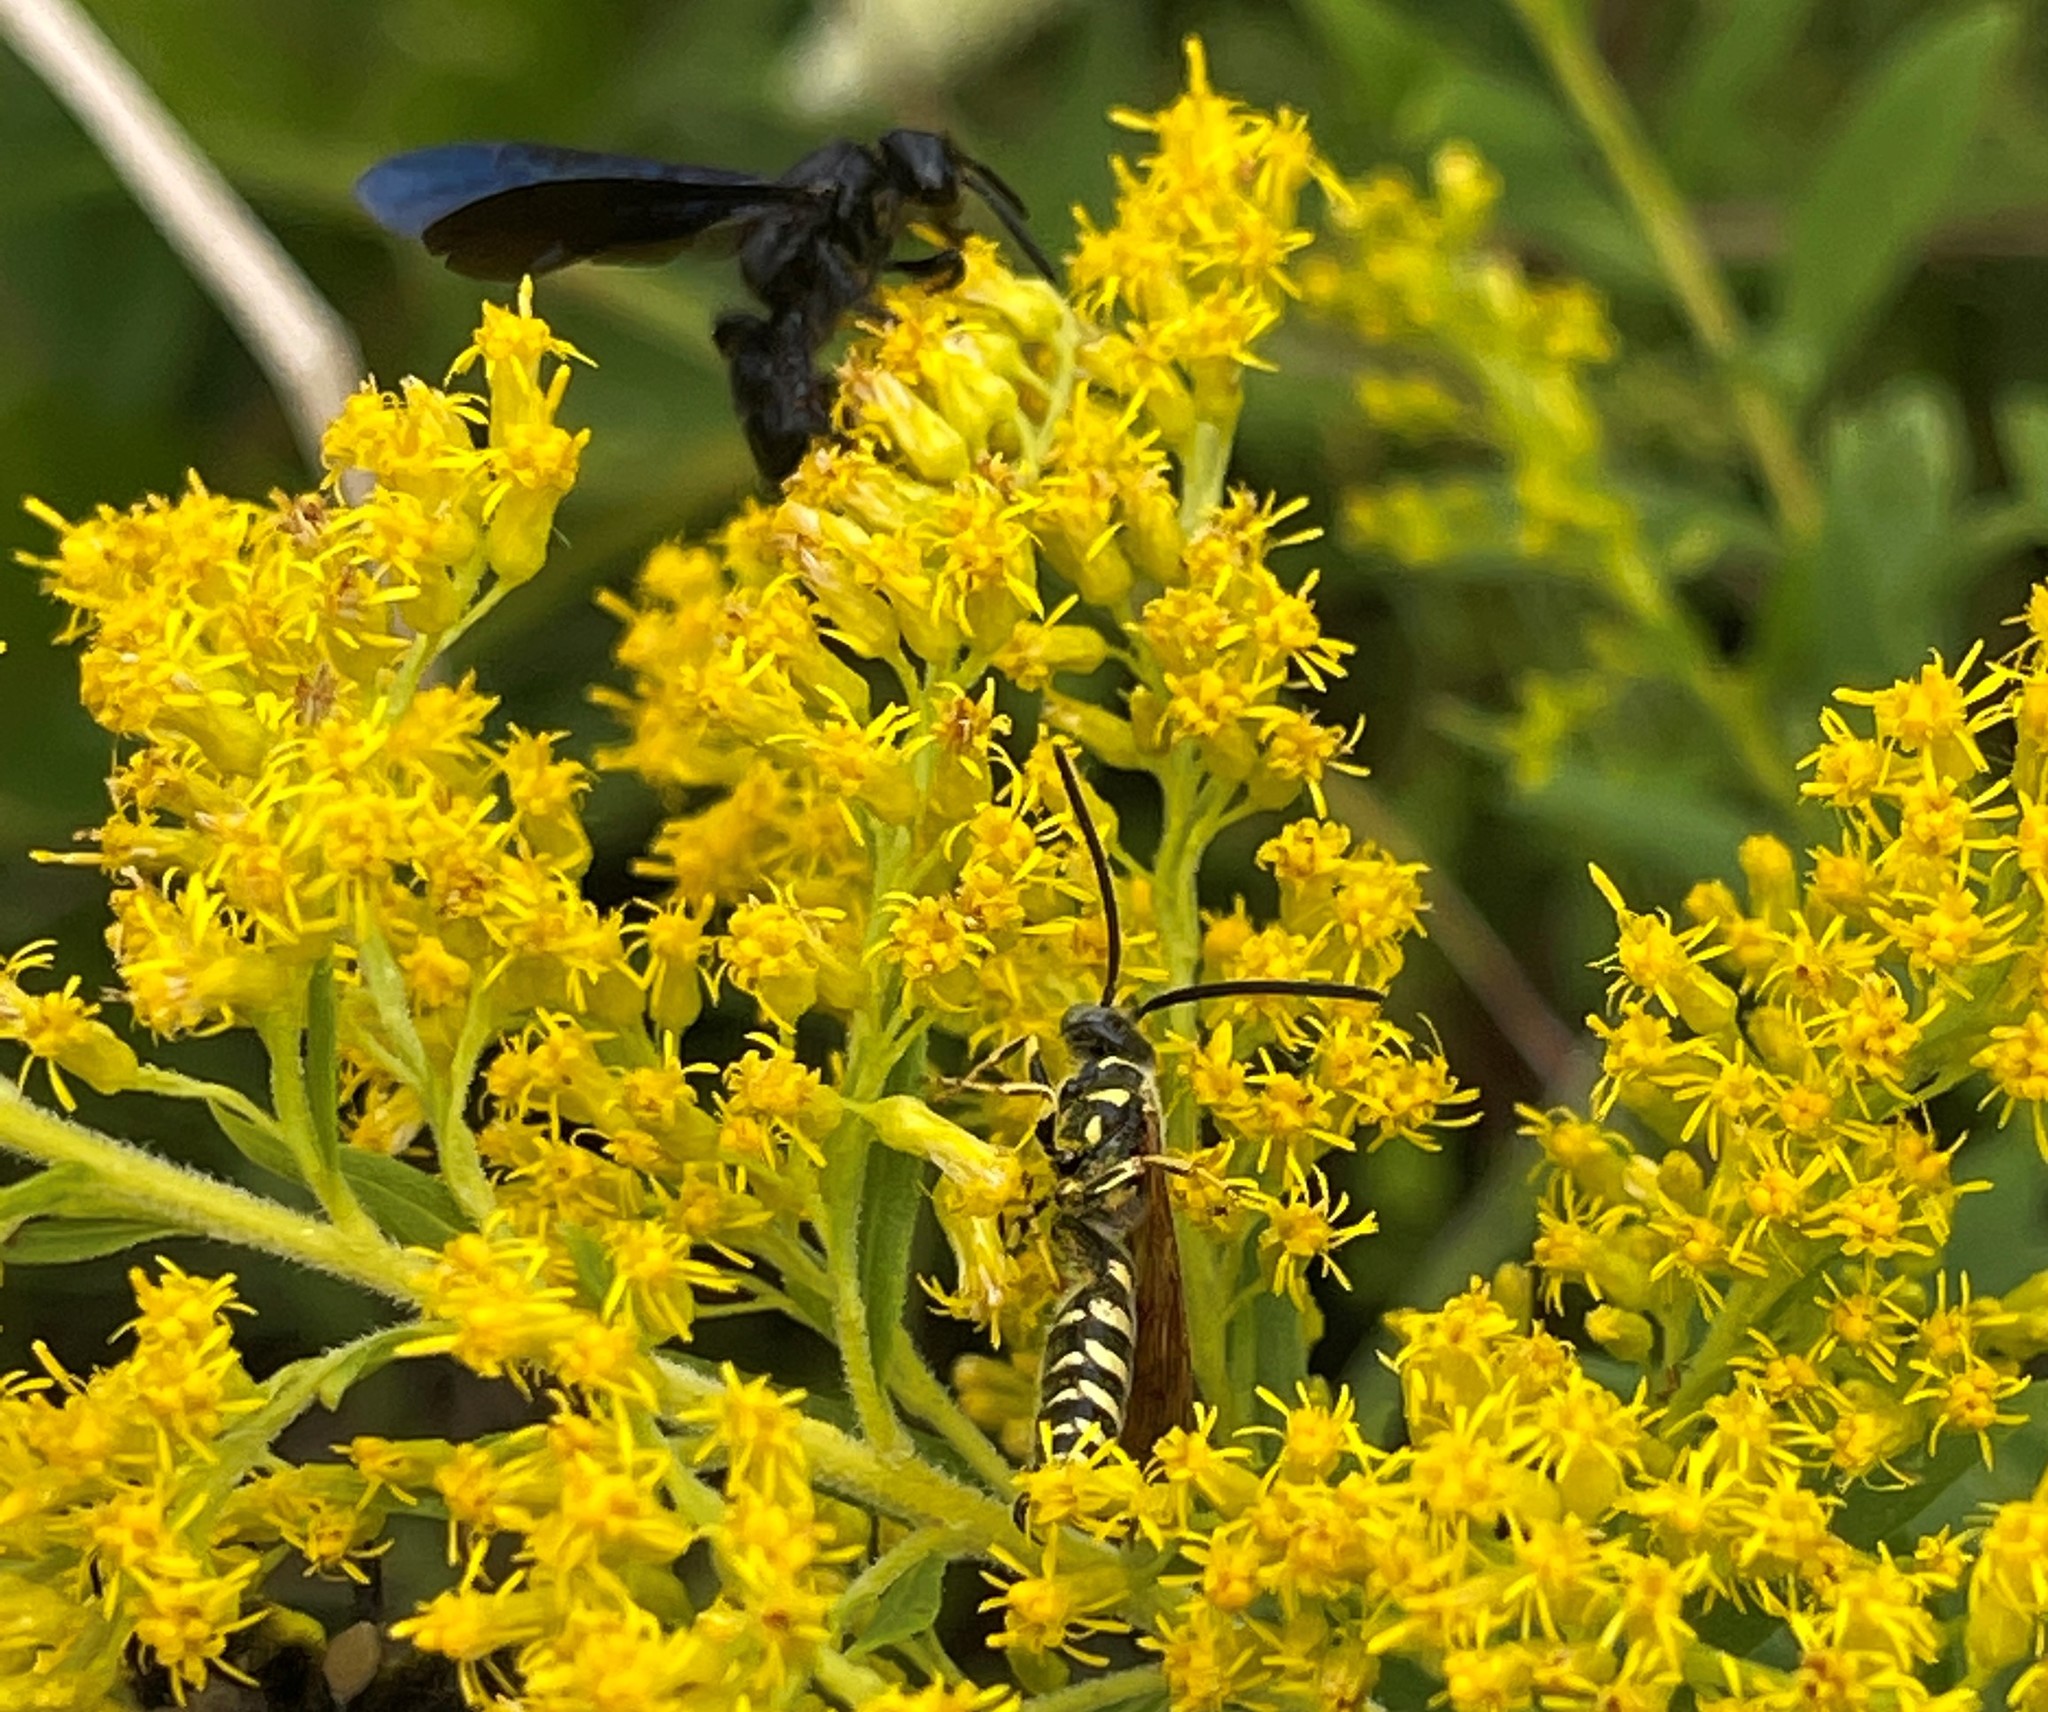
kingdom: Animalia
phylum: Arthropoda
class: Insecta
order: Hymenoptera
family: Scoliidae
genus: Scolia
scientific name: Scolia dubia
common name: Blue-winged scoliid wasp
